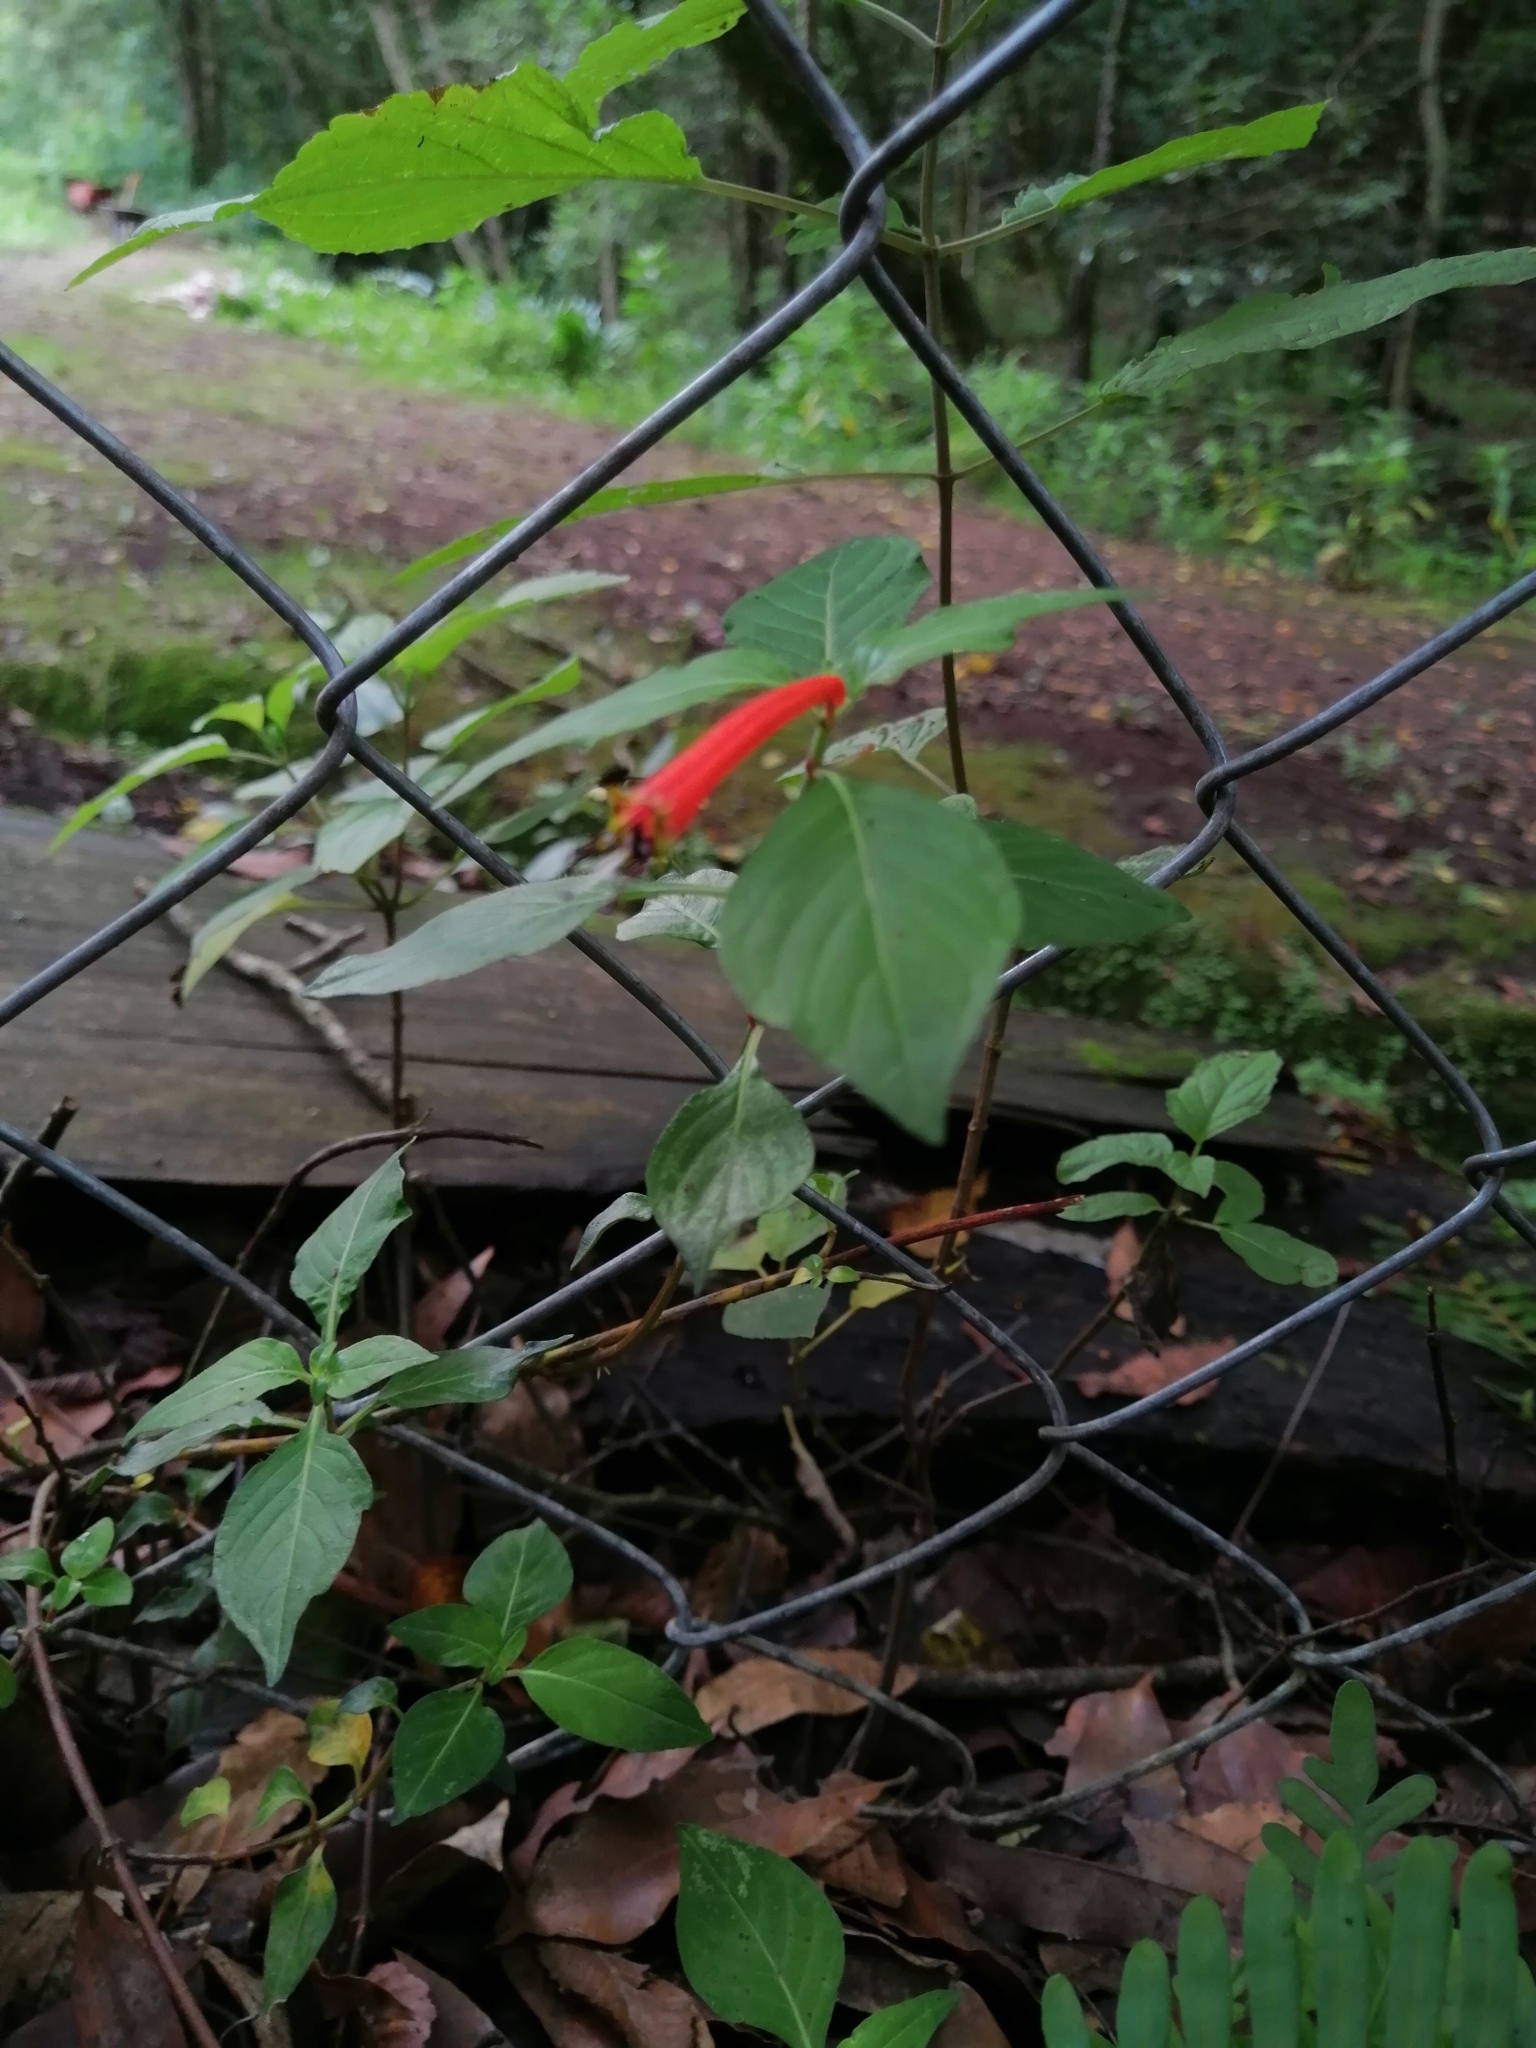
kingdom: Plantae
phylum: Tracheophyta
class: Magnoliopsida
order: Myrtales
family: Lythraceae
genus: Cuphea
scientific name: Cuphea bustamanta
